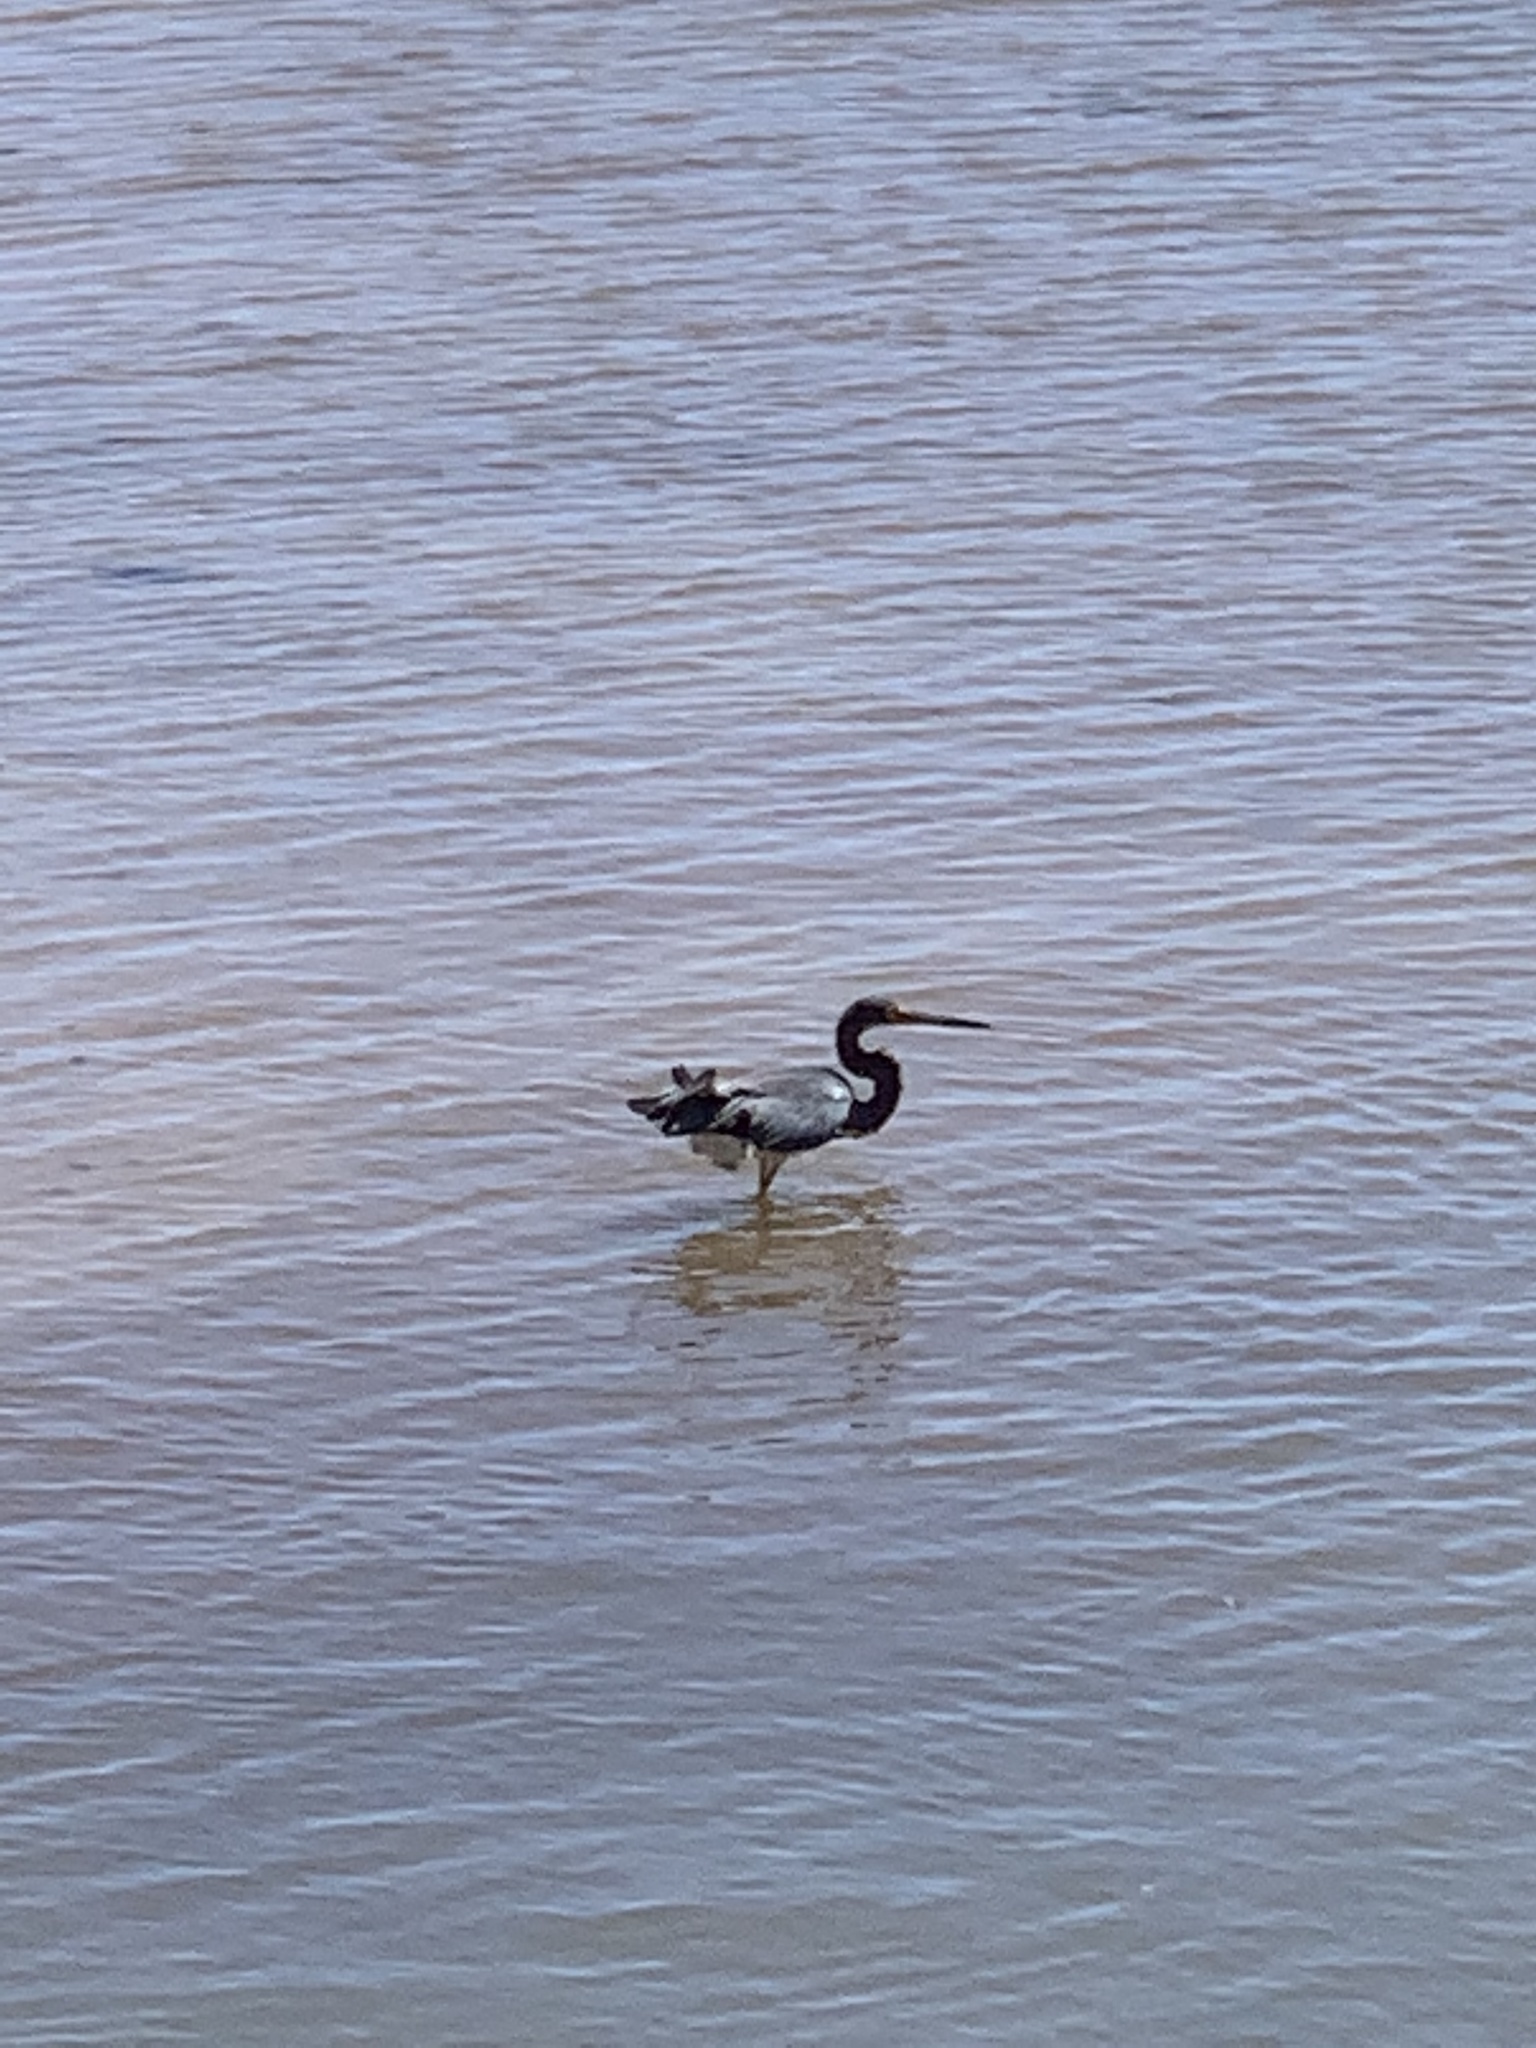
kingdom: Animalia
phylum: Chordata
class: Aves
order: Pelecaniformes
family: Ardeidae
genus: Egretta
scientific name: Egretta tricolor
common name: Tricolored heron
